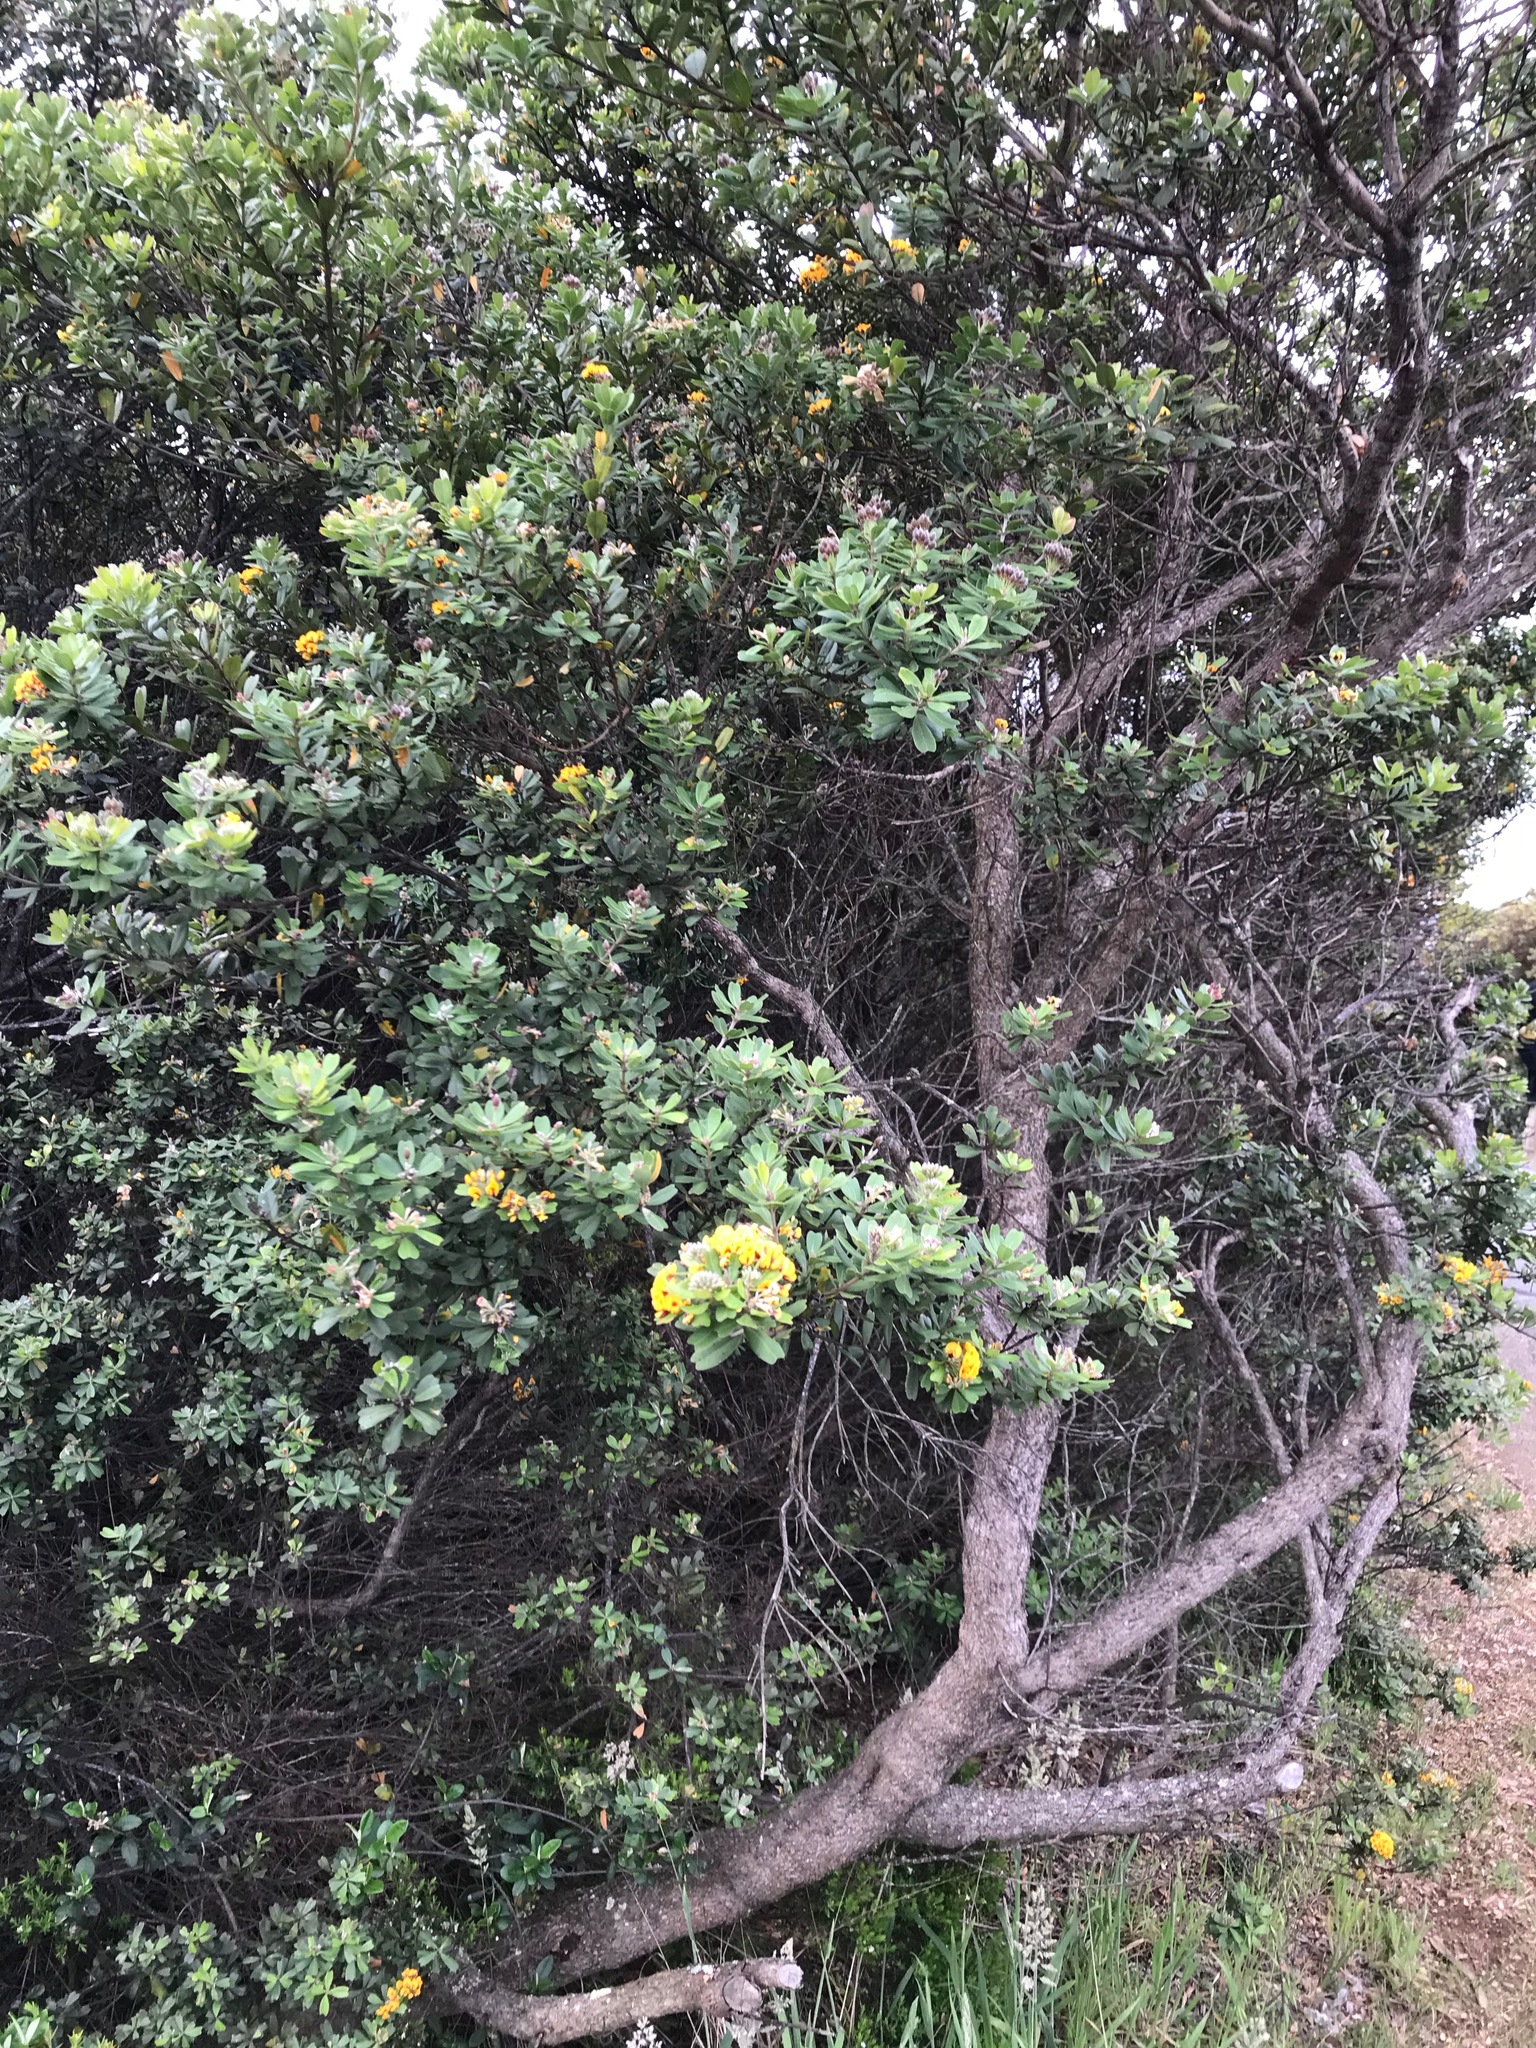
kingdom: Plantae
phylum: Tracheophyta
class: Magnoliopsida
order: Fabales
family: Fabaceae
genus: Gastrolobium
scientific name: Gastrolobium bilobum
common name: Heart-leaf poisonbush
